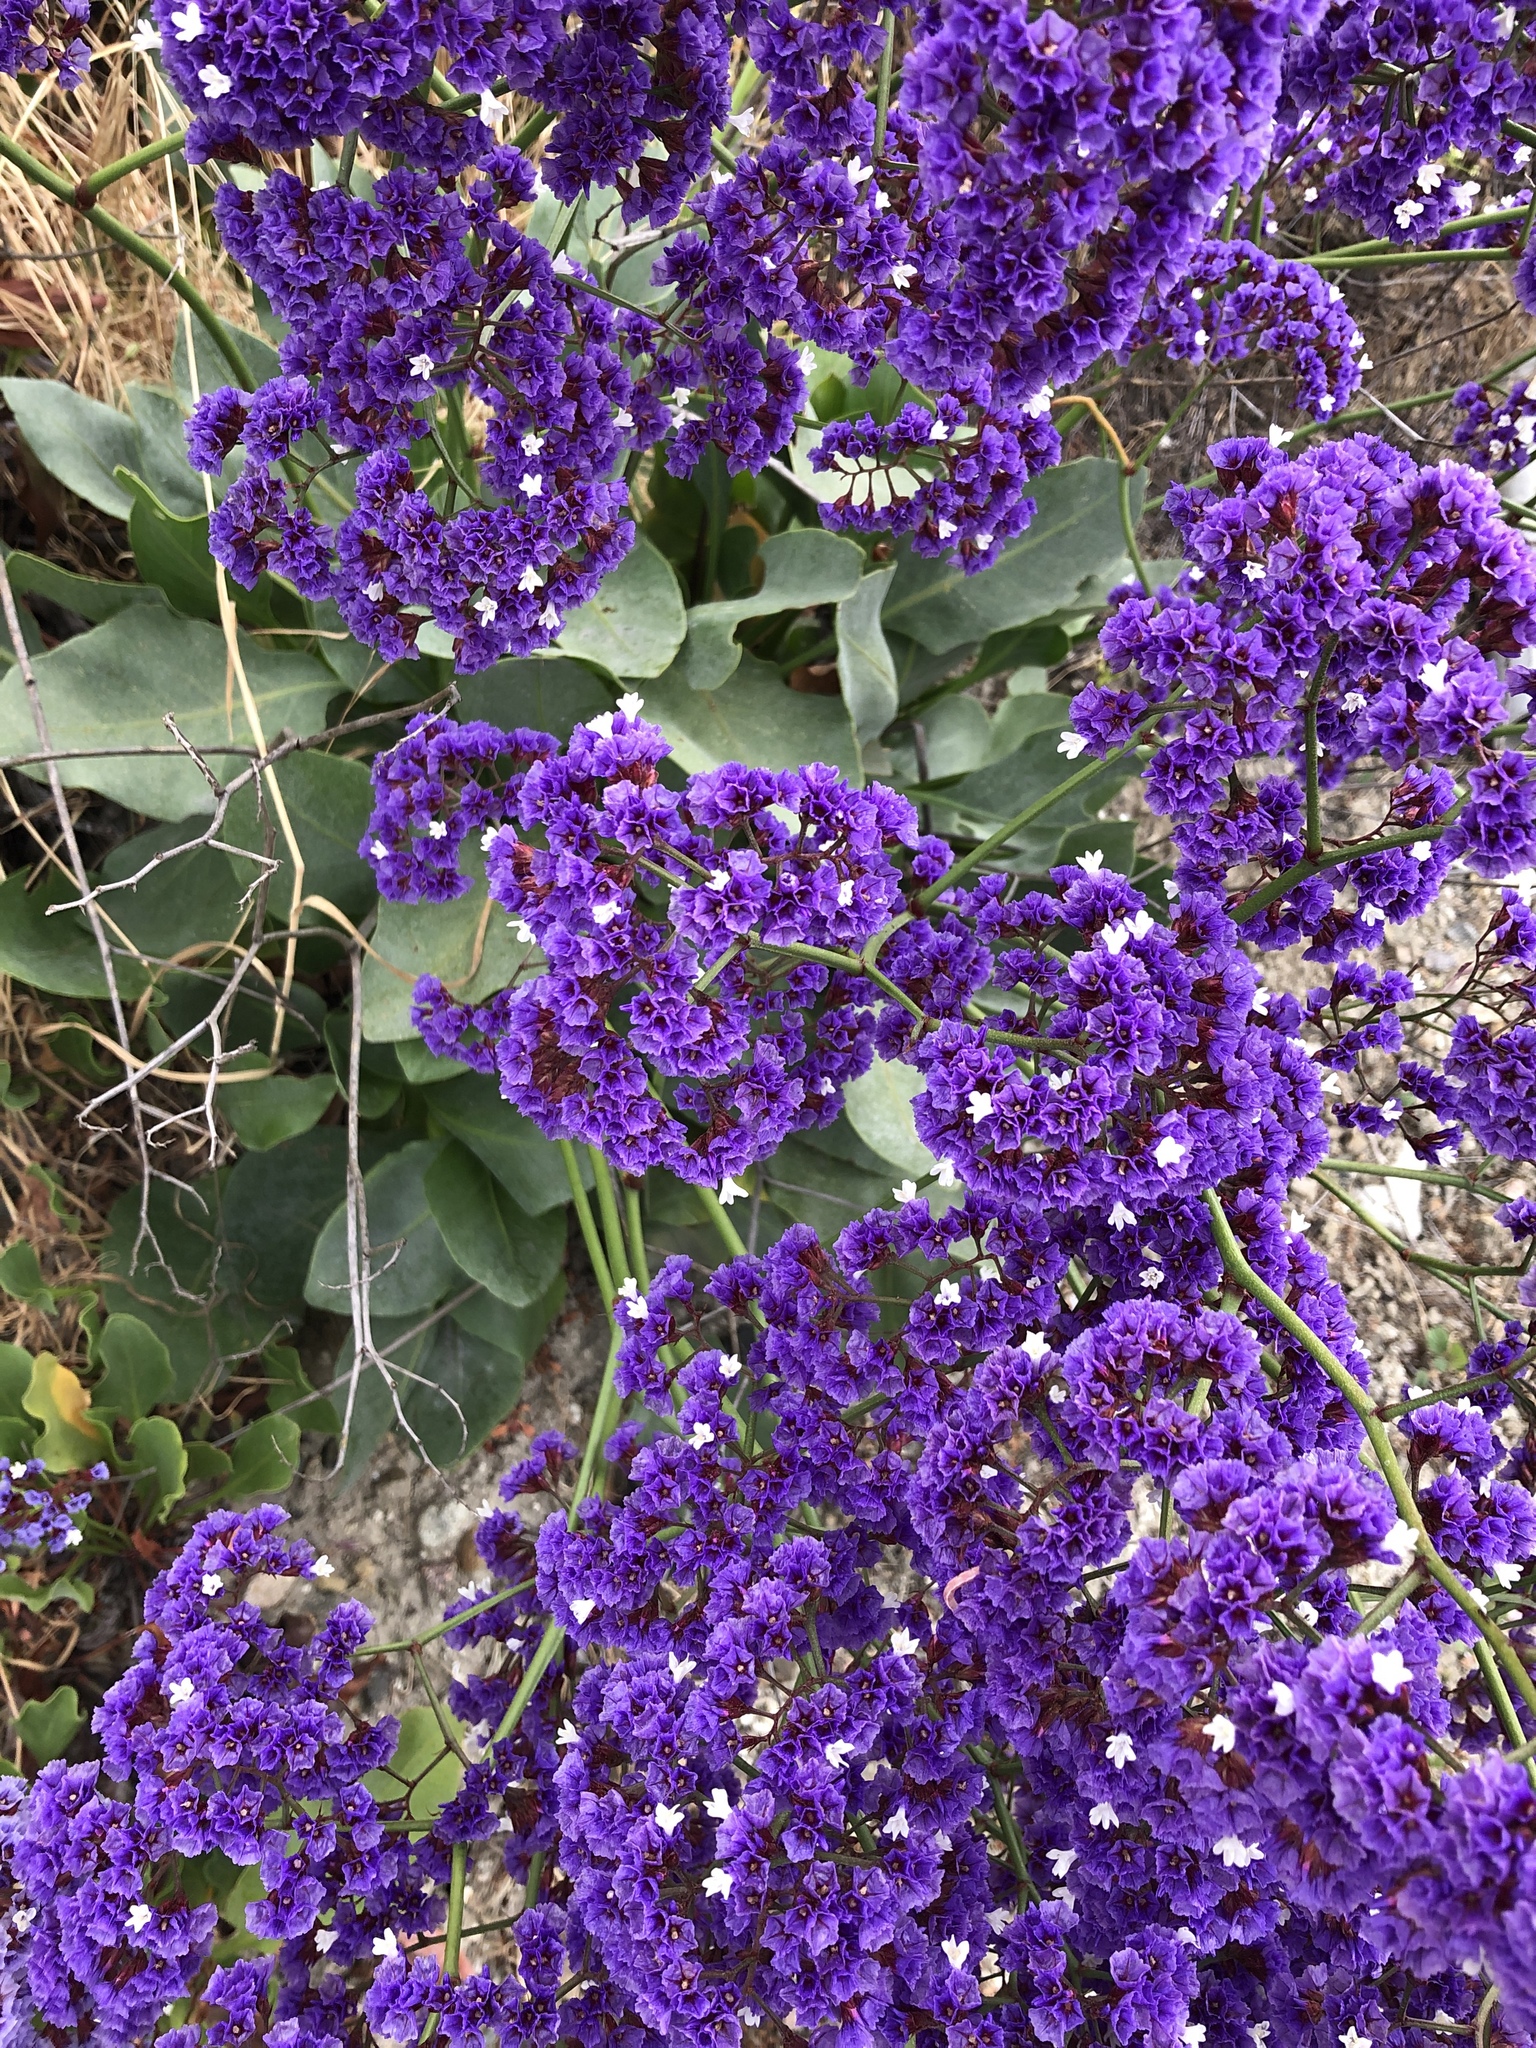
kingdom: Plantae
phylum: Tracheophyta
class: Magnoliopsida
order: Caryophyllales
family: Plumbaginaceae
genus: Limonium
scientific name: Limonium perezii
